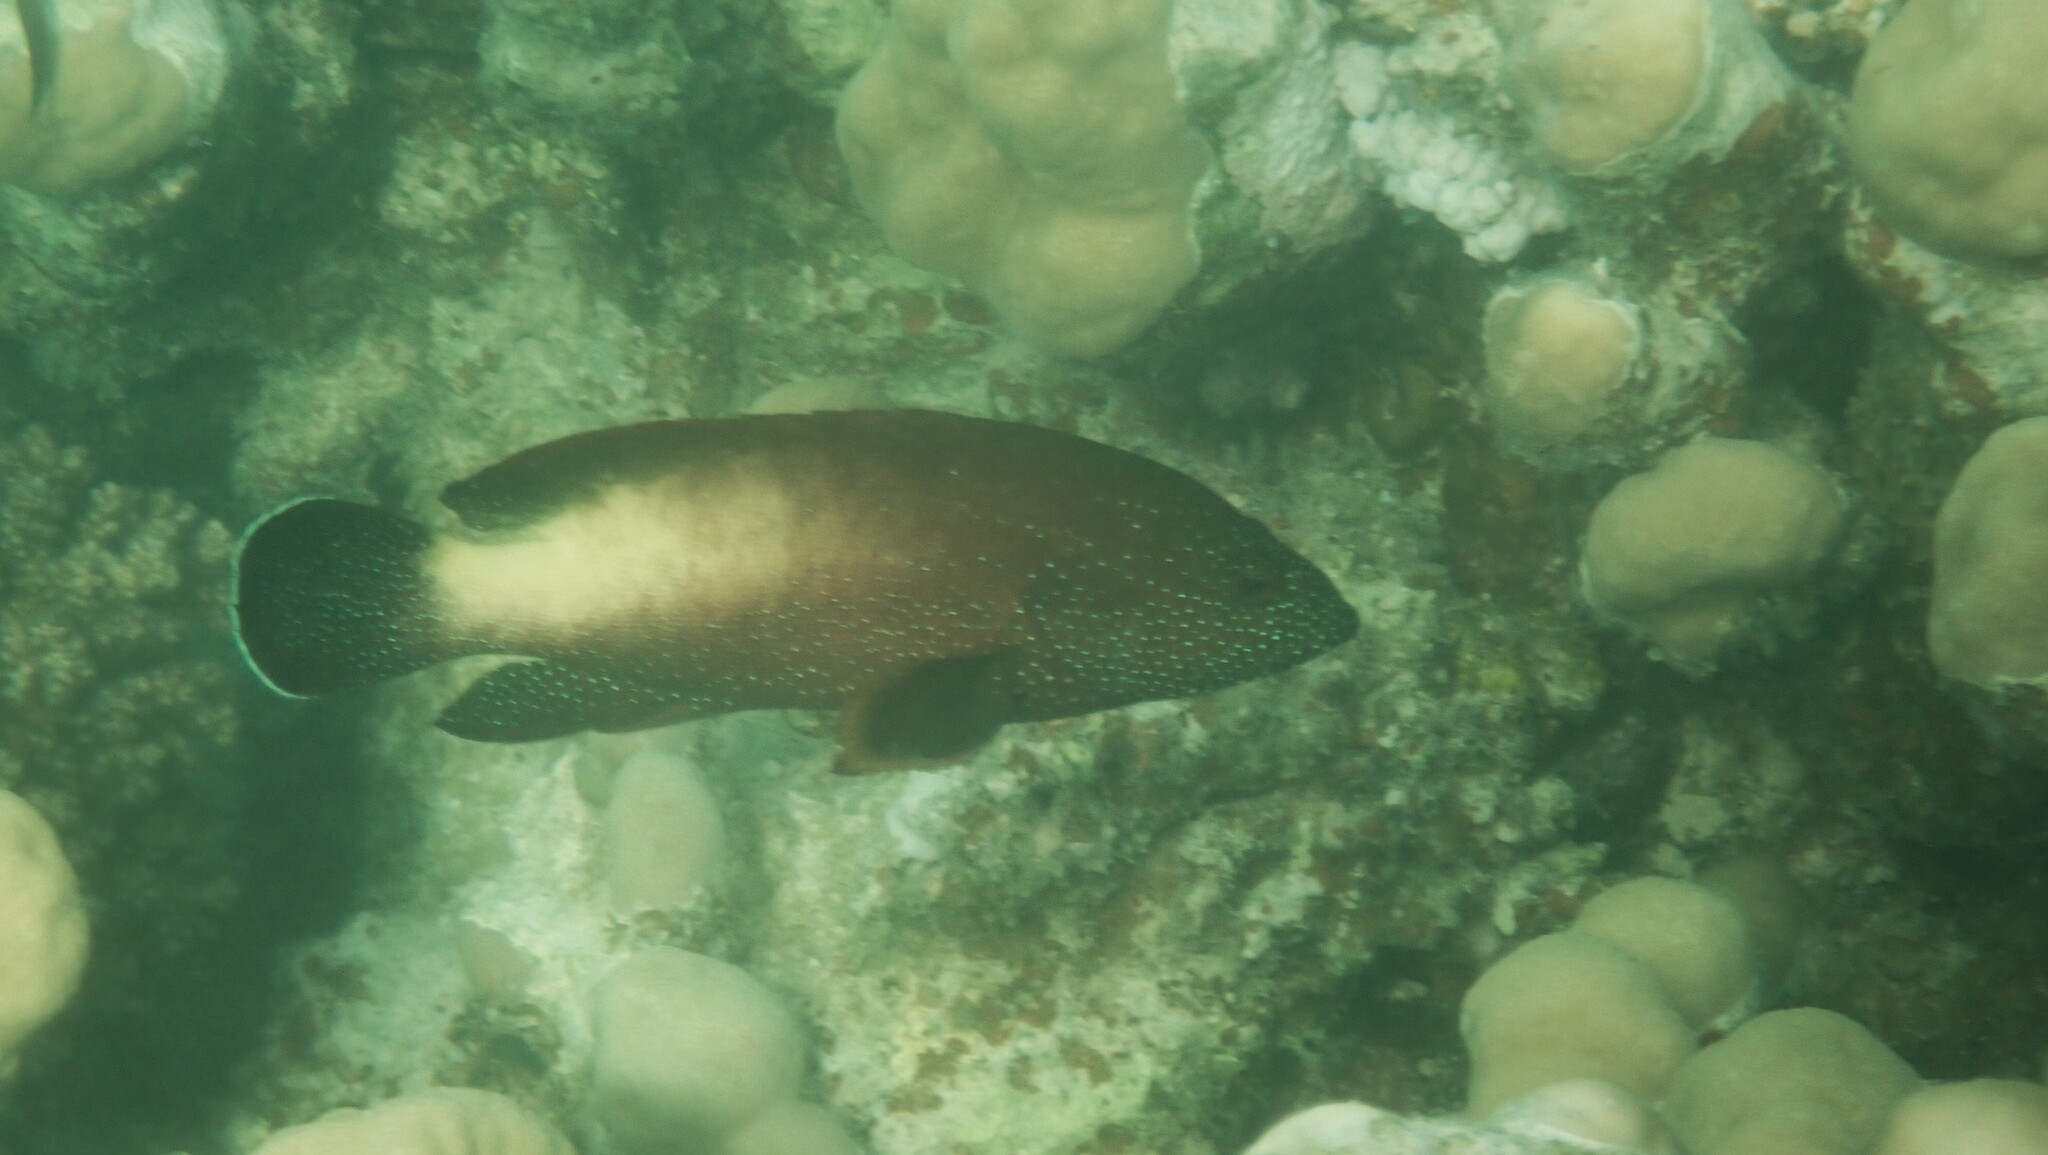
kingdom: Animalia
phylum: Chordata
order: Perciformes
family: Serranidae
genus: Cephalopholis
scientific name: Cephalopholis hemistiktos
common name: Halfspotted hind
